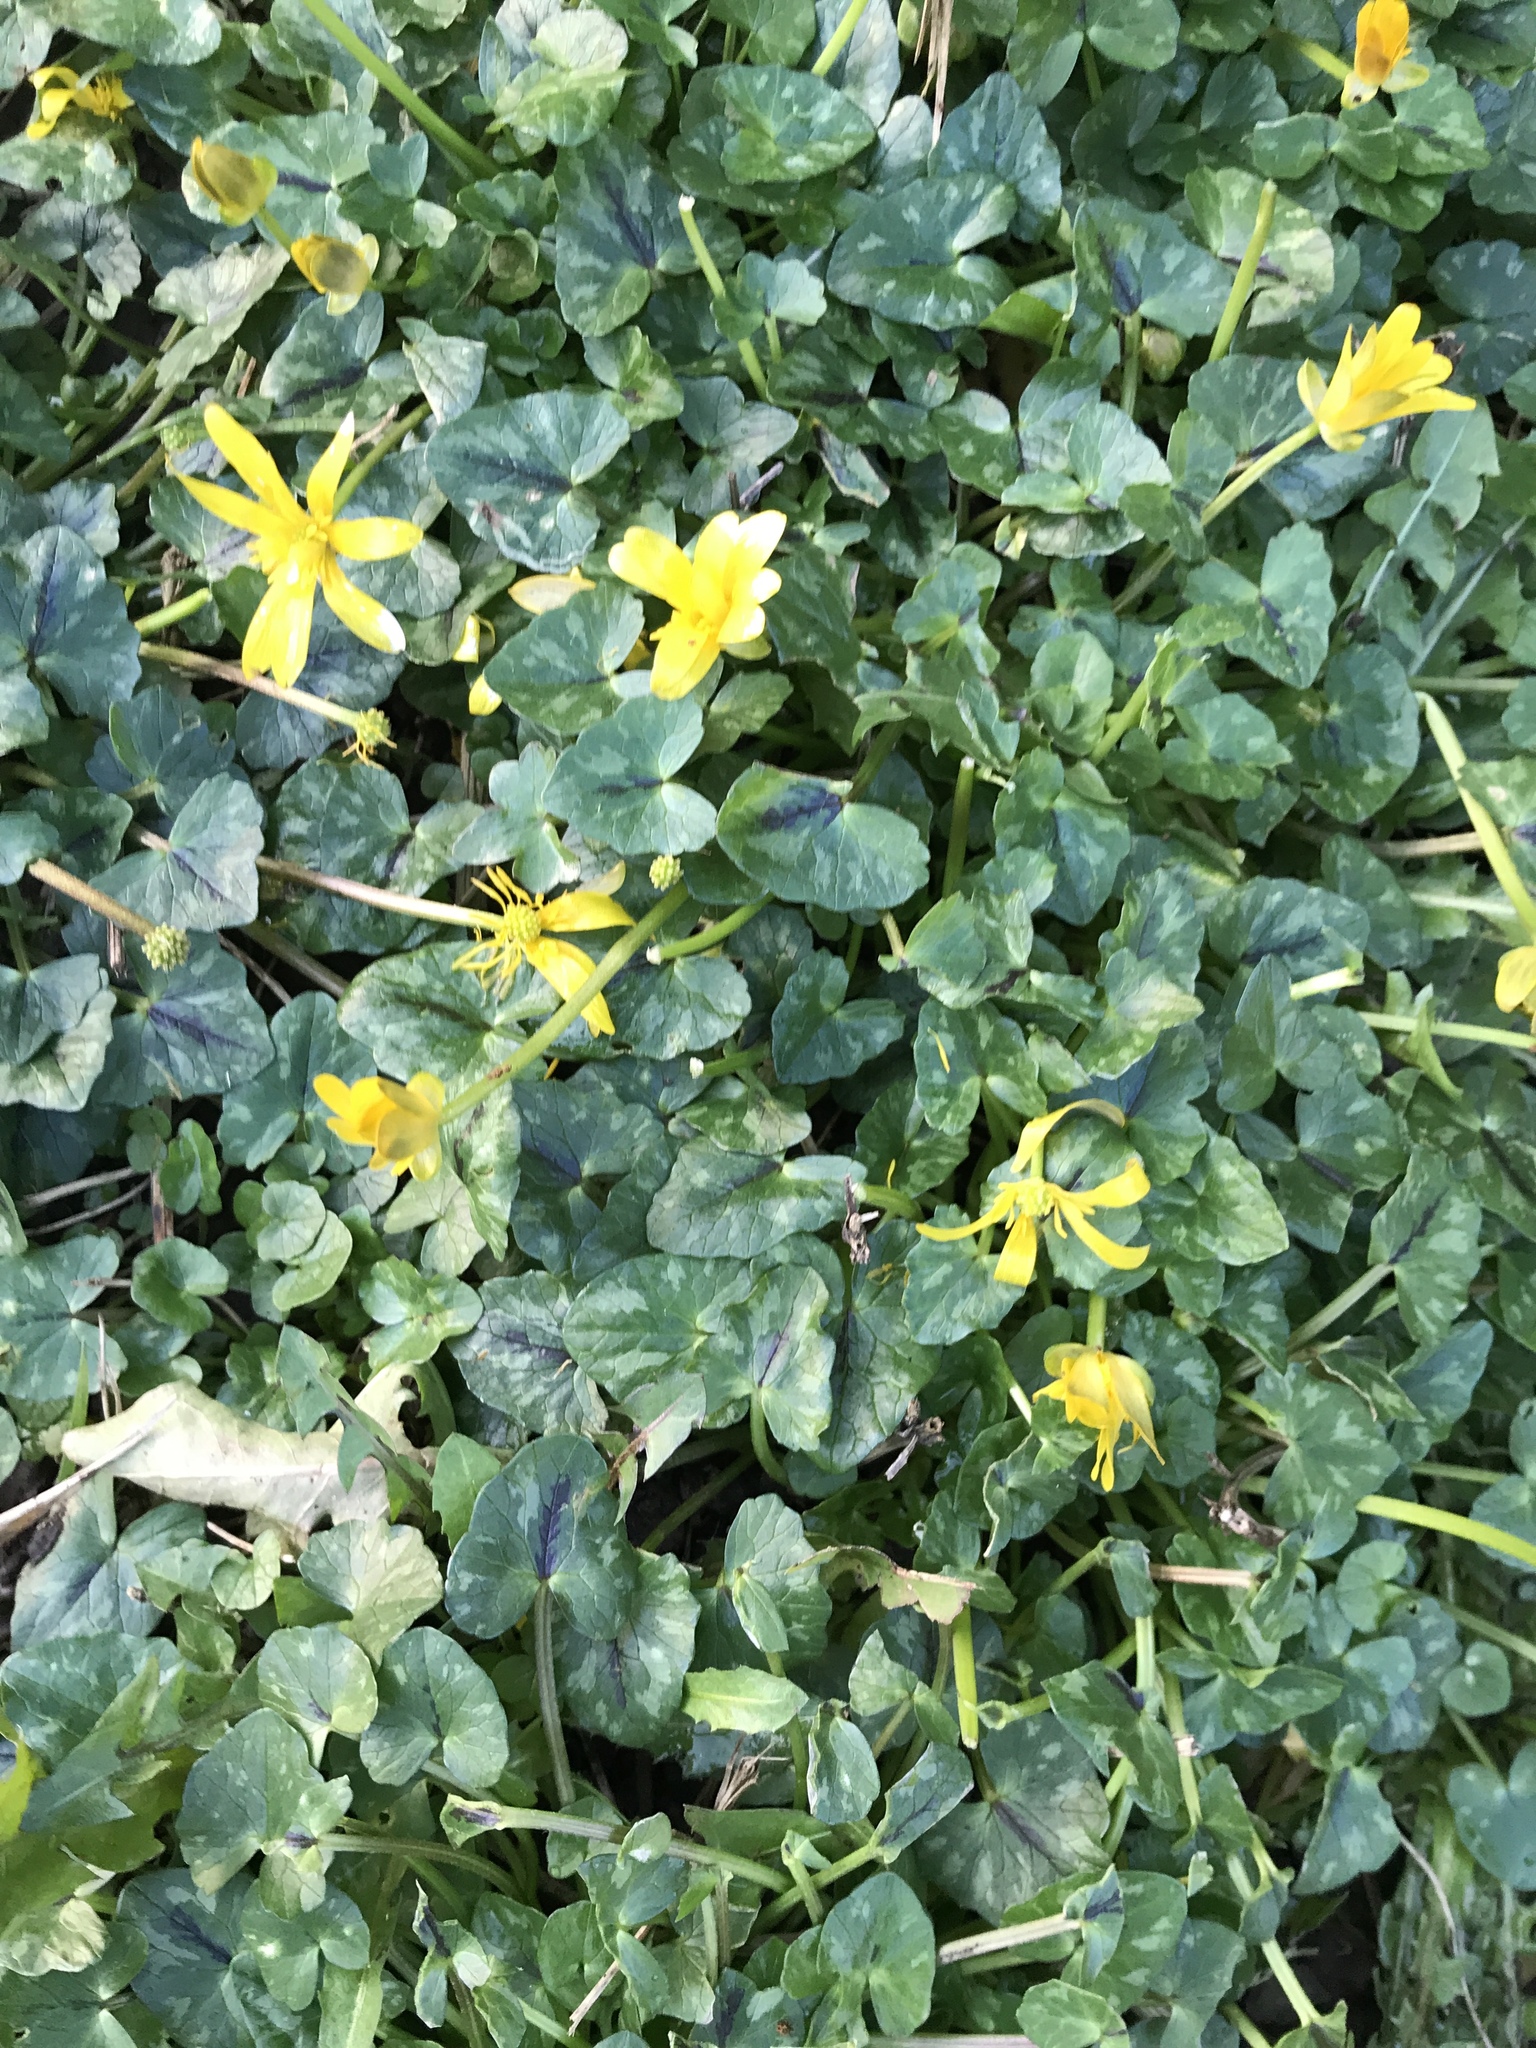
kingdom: Plantae
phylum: Tracheophyta
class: Magnoliopsida
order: Ranunculales
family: Ranunculaceae
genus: Ficaria
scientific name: Ficaria verna
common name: Lesser celandine
